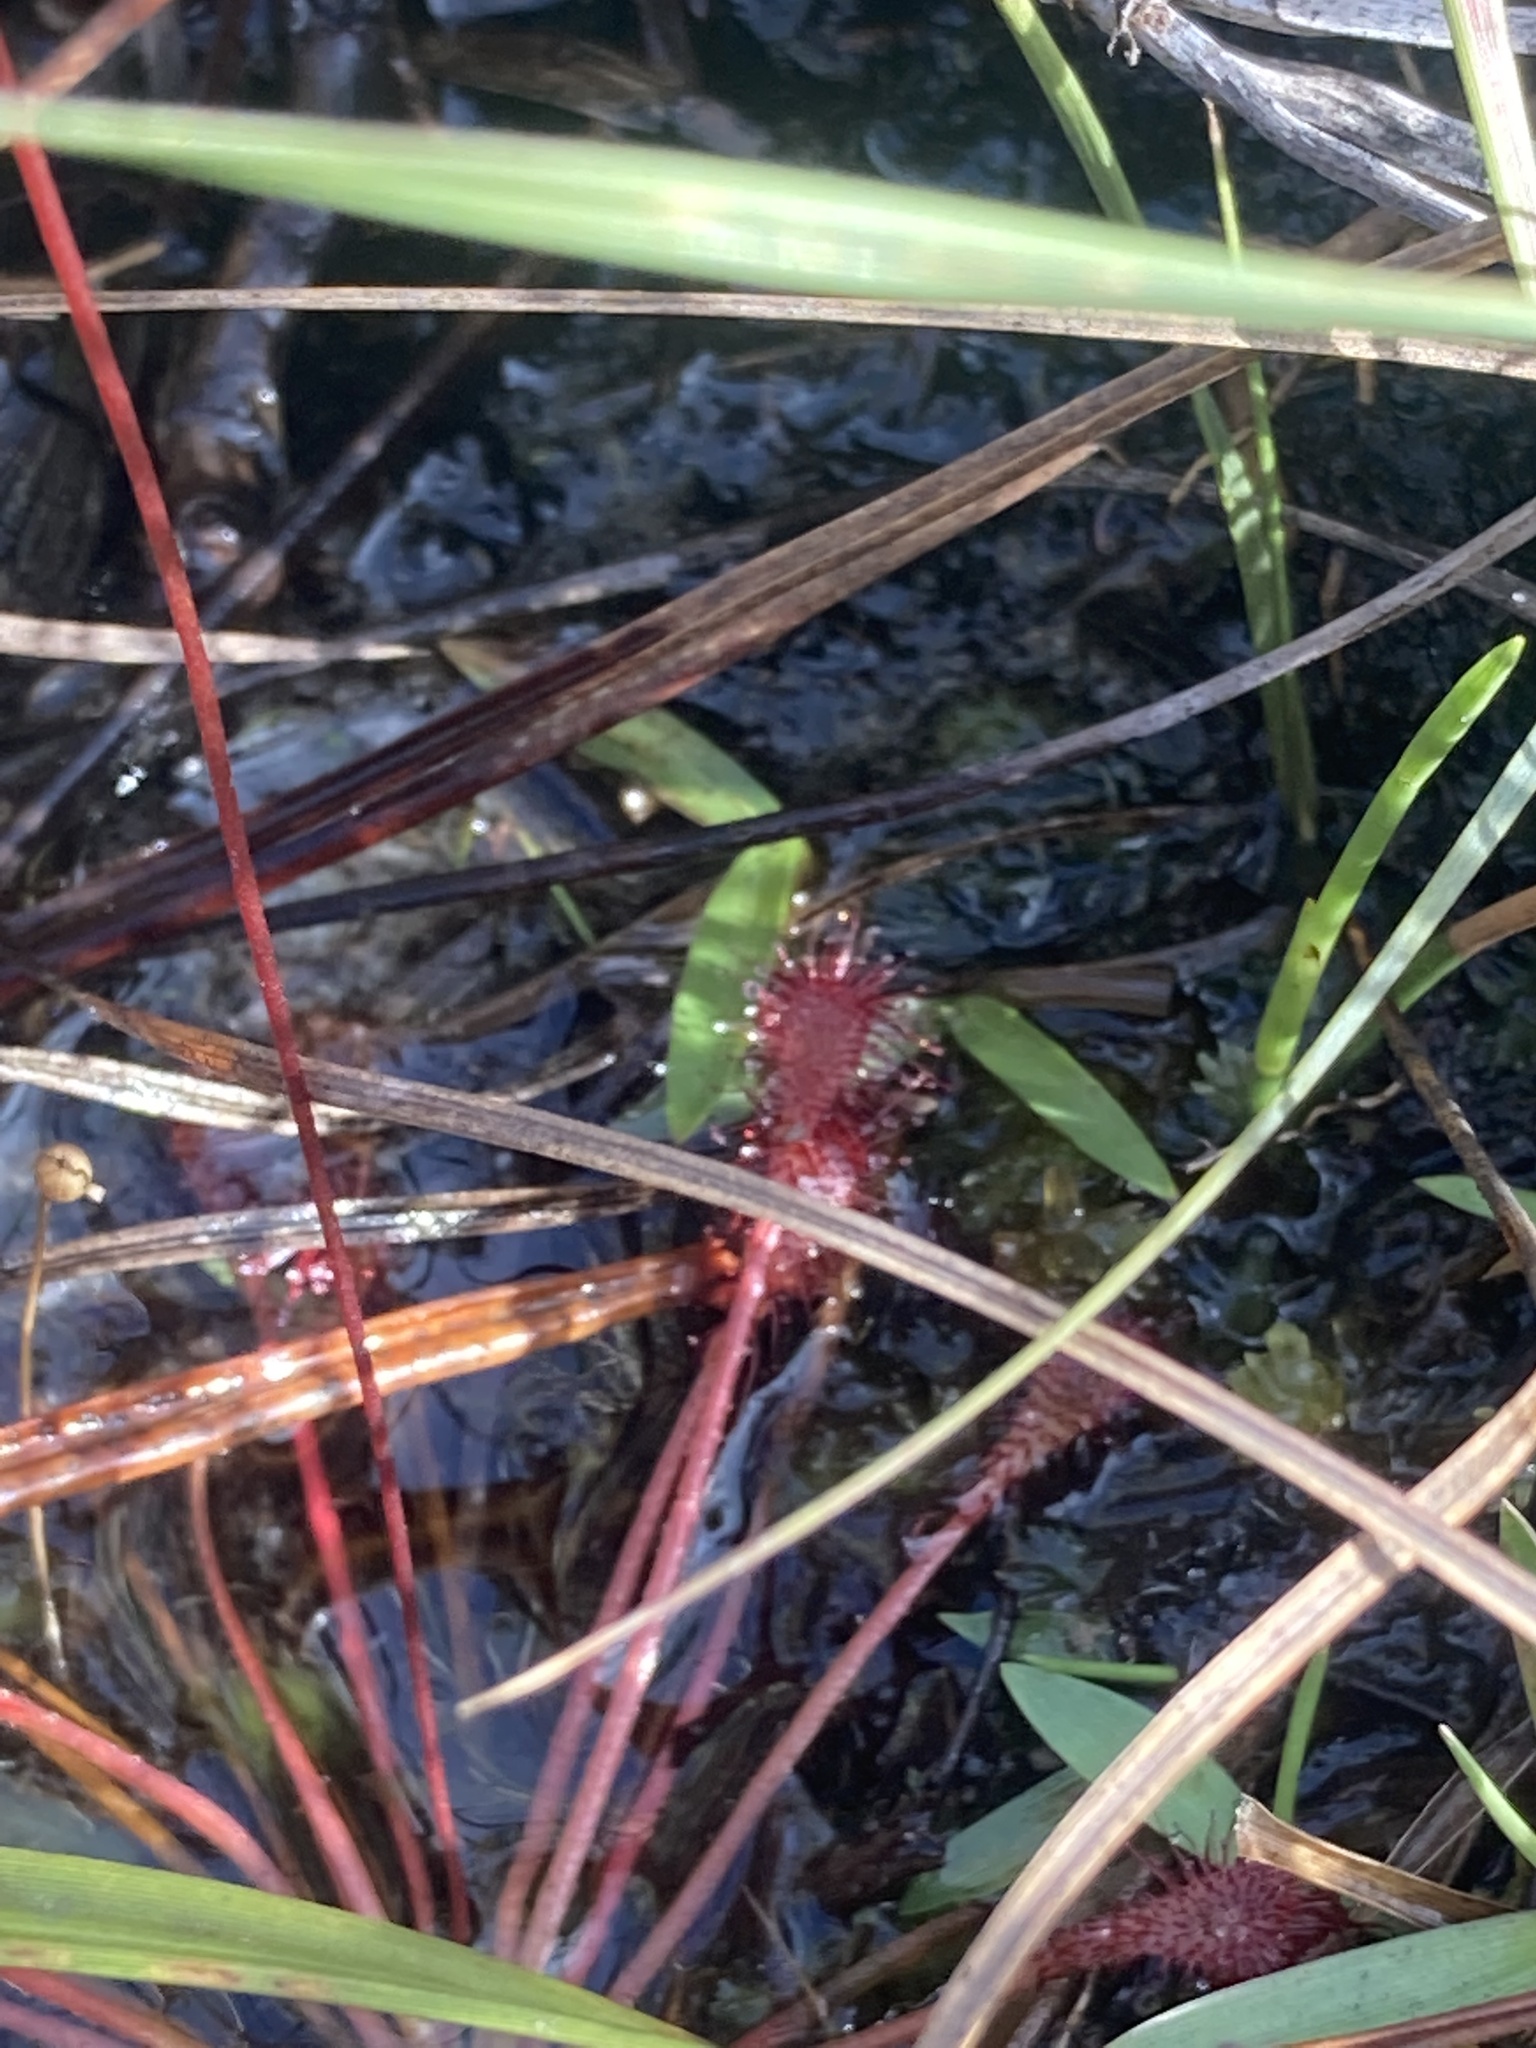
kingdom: Plantae
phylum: Tracheophyta
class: Magnoliopsida
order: Caryophyllales
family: Droseraceae
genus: Drosera
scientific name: Drosera capillaris
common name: Pink sundew
